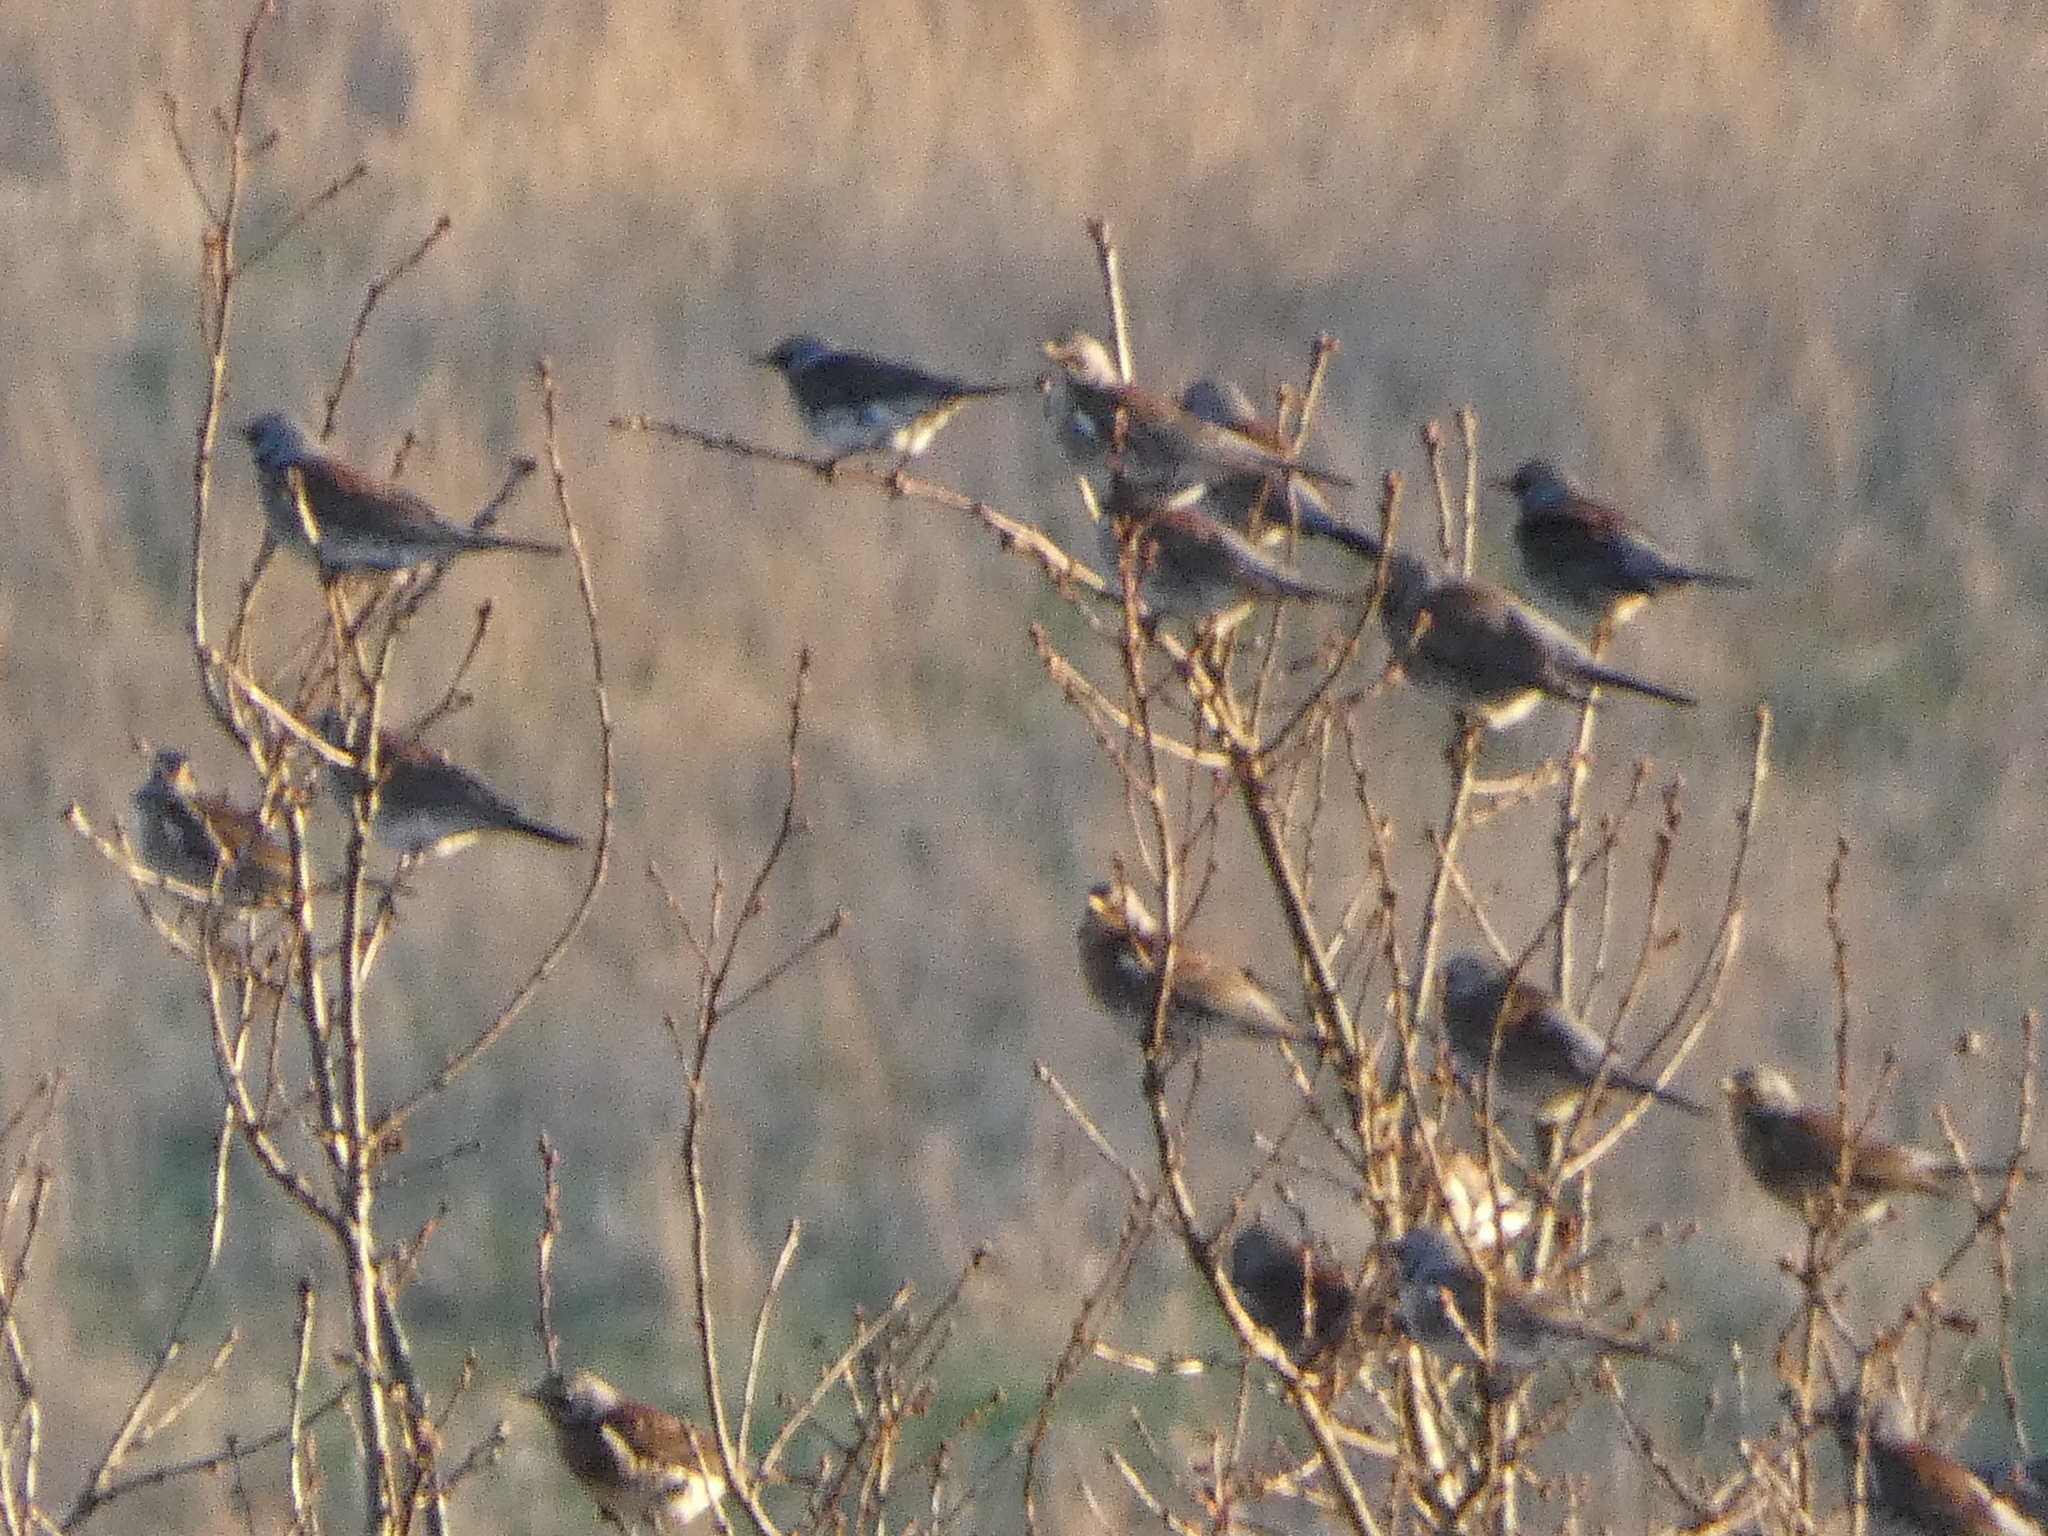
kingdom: Animalia
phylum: Chordata
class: Aves
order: Passeriformes
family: Turdidae
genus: Turdus
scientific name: Turdus pilaris
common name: Fieldfare
